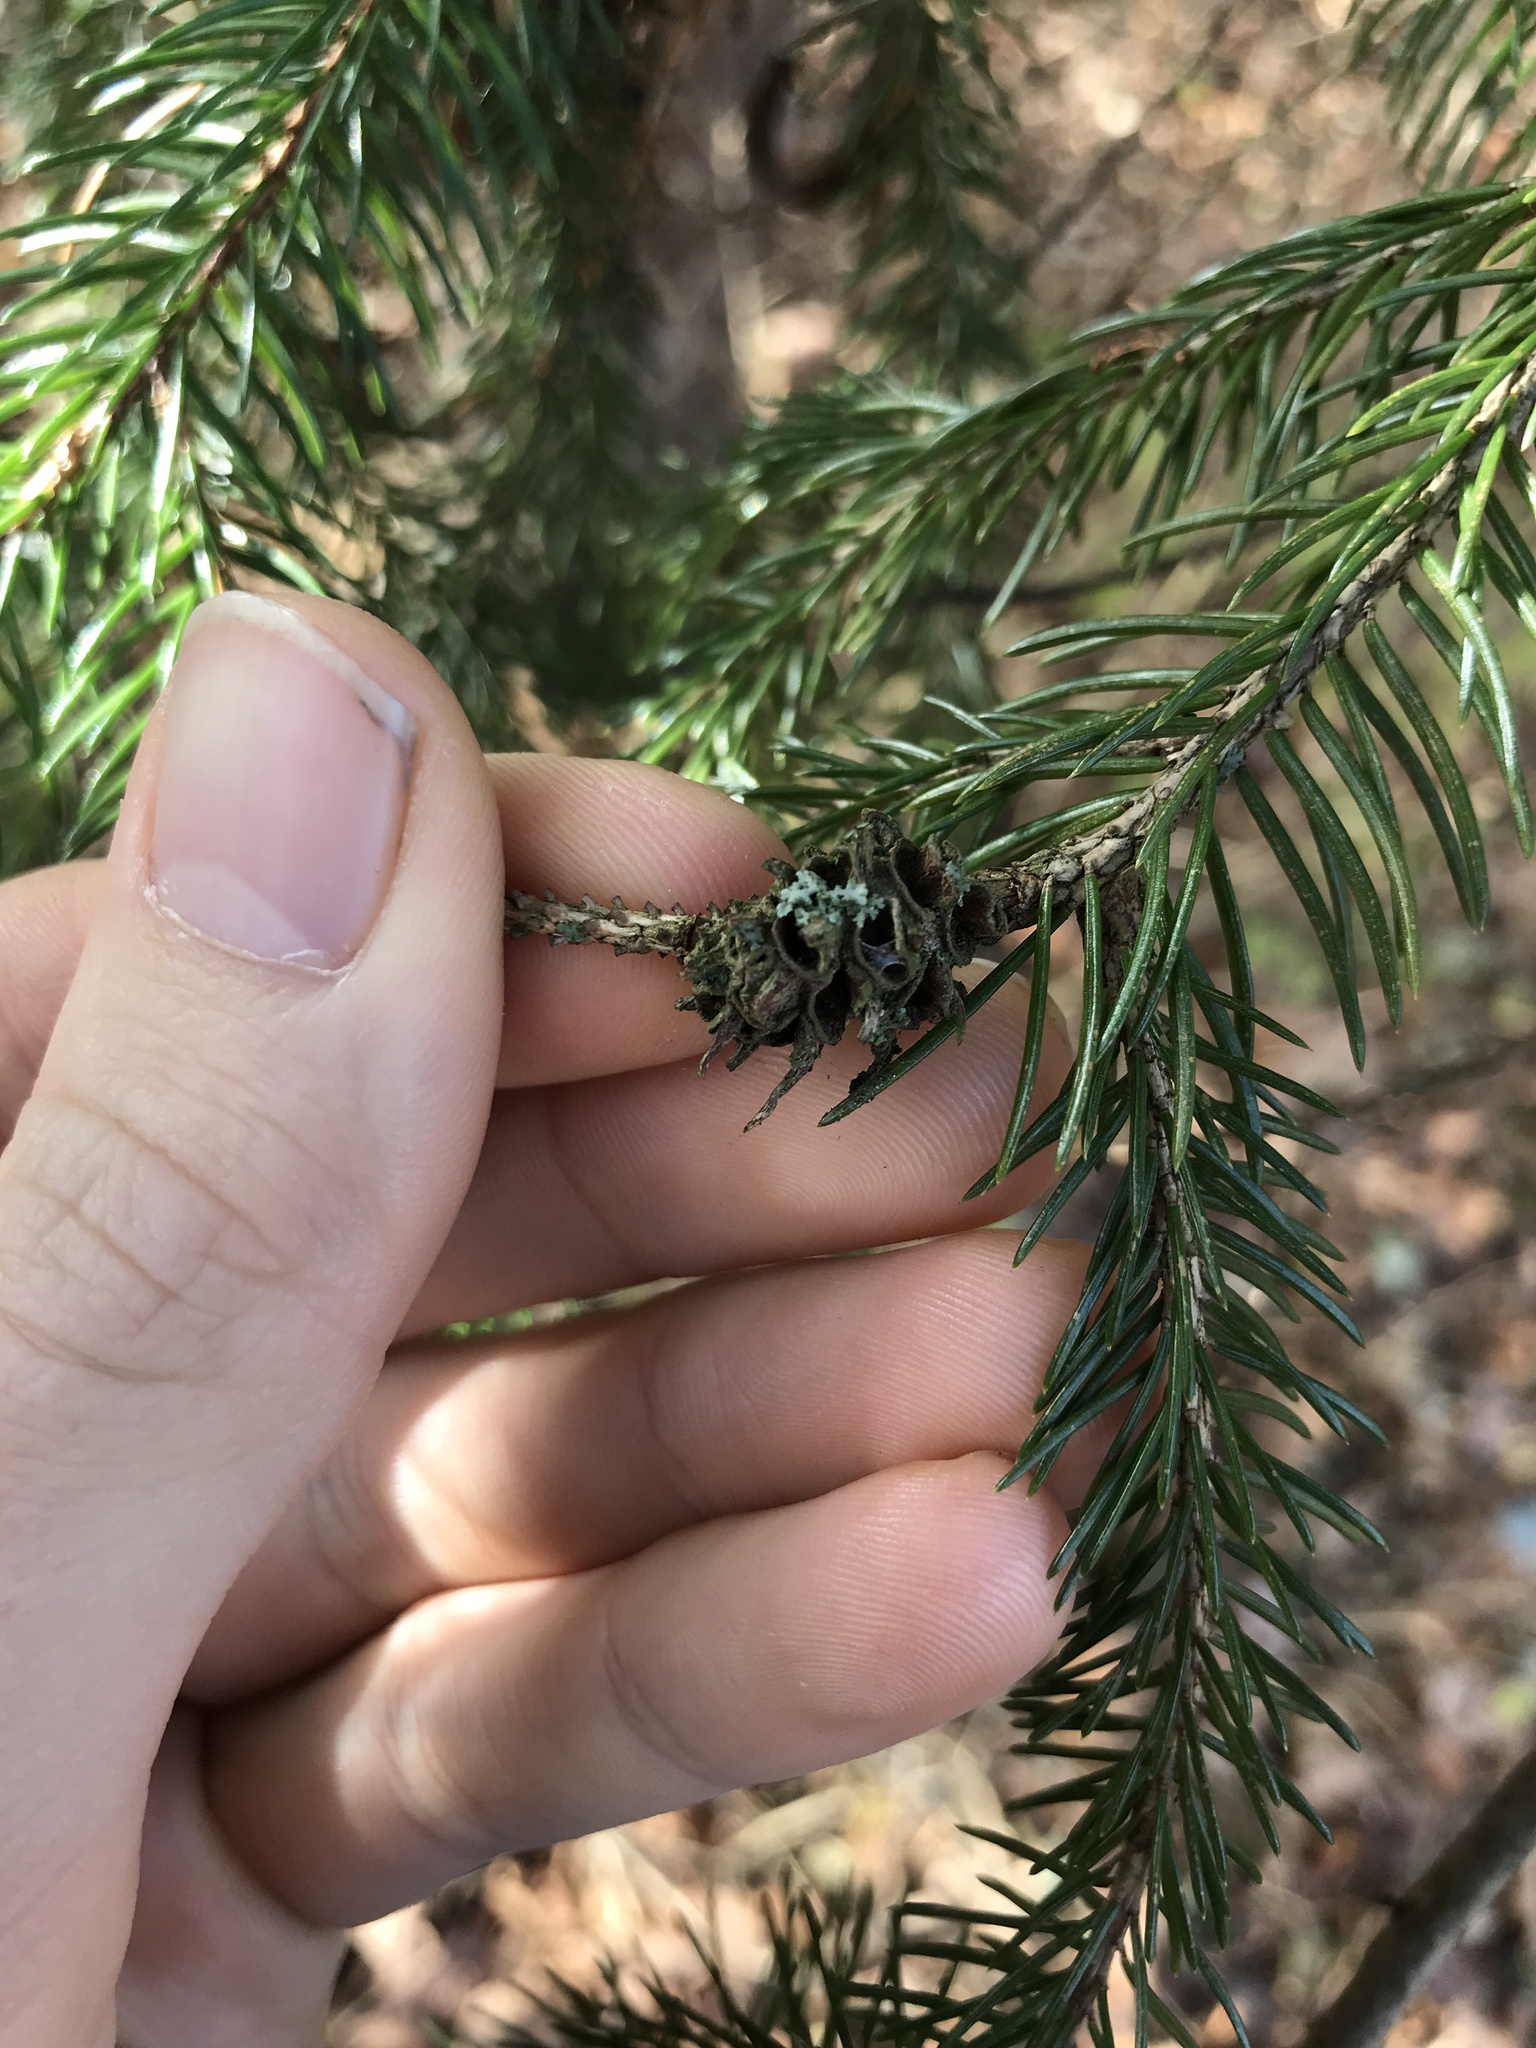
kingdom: Animalia
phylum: Arthropoda
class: Insecta
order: Hemiptera
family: Adelgidae
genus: Adelges
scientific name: Adelges abietis
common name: Eastern spruce gall adelgid
